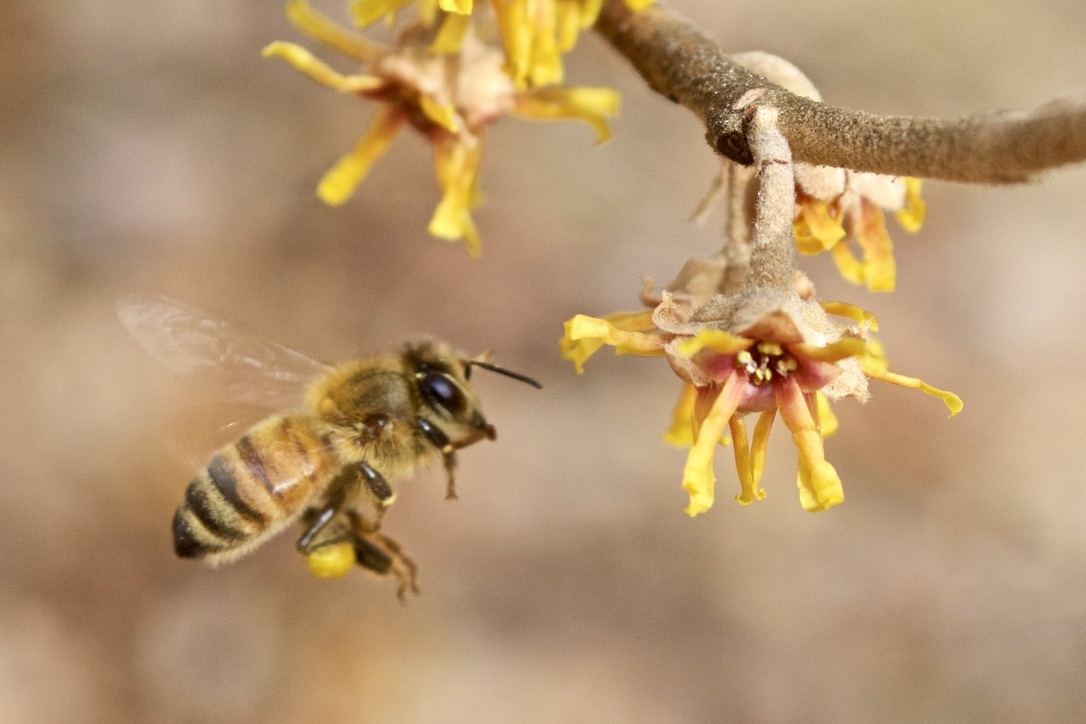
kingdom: Animalia
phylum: Arthropoda
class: Insecta
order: Hymenoptera
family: Apidae
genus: Apis
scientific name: Apis mellifera
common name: Honey bee
